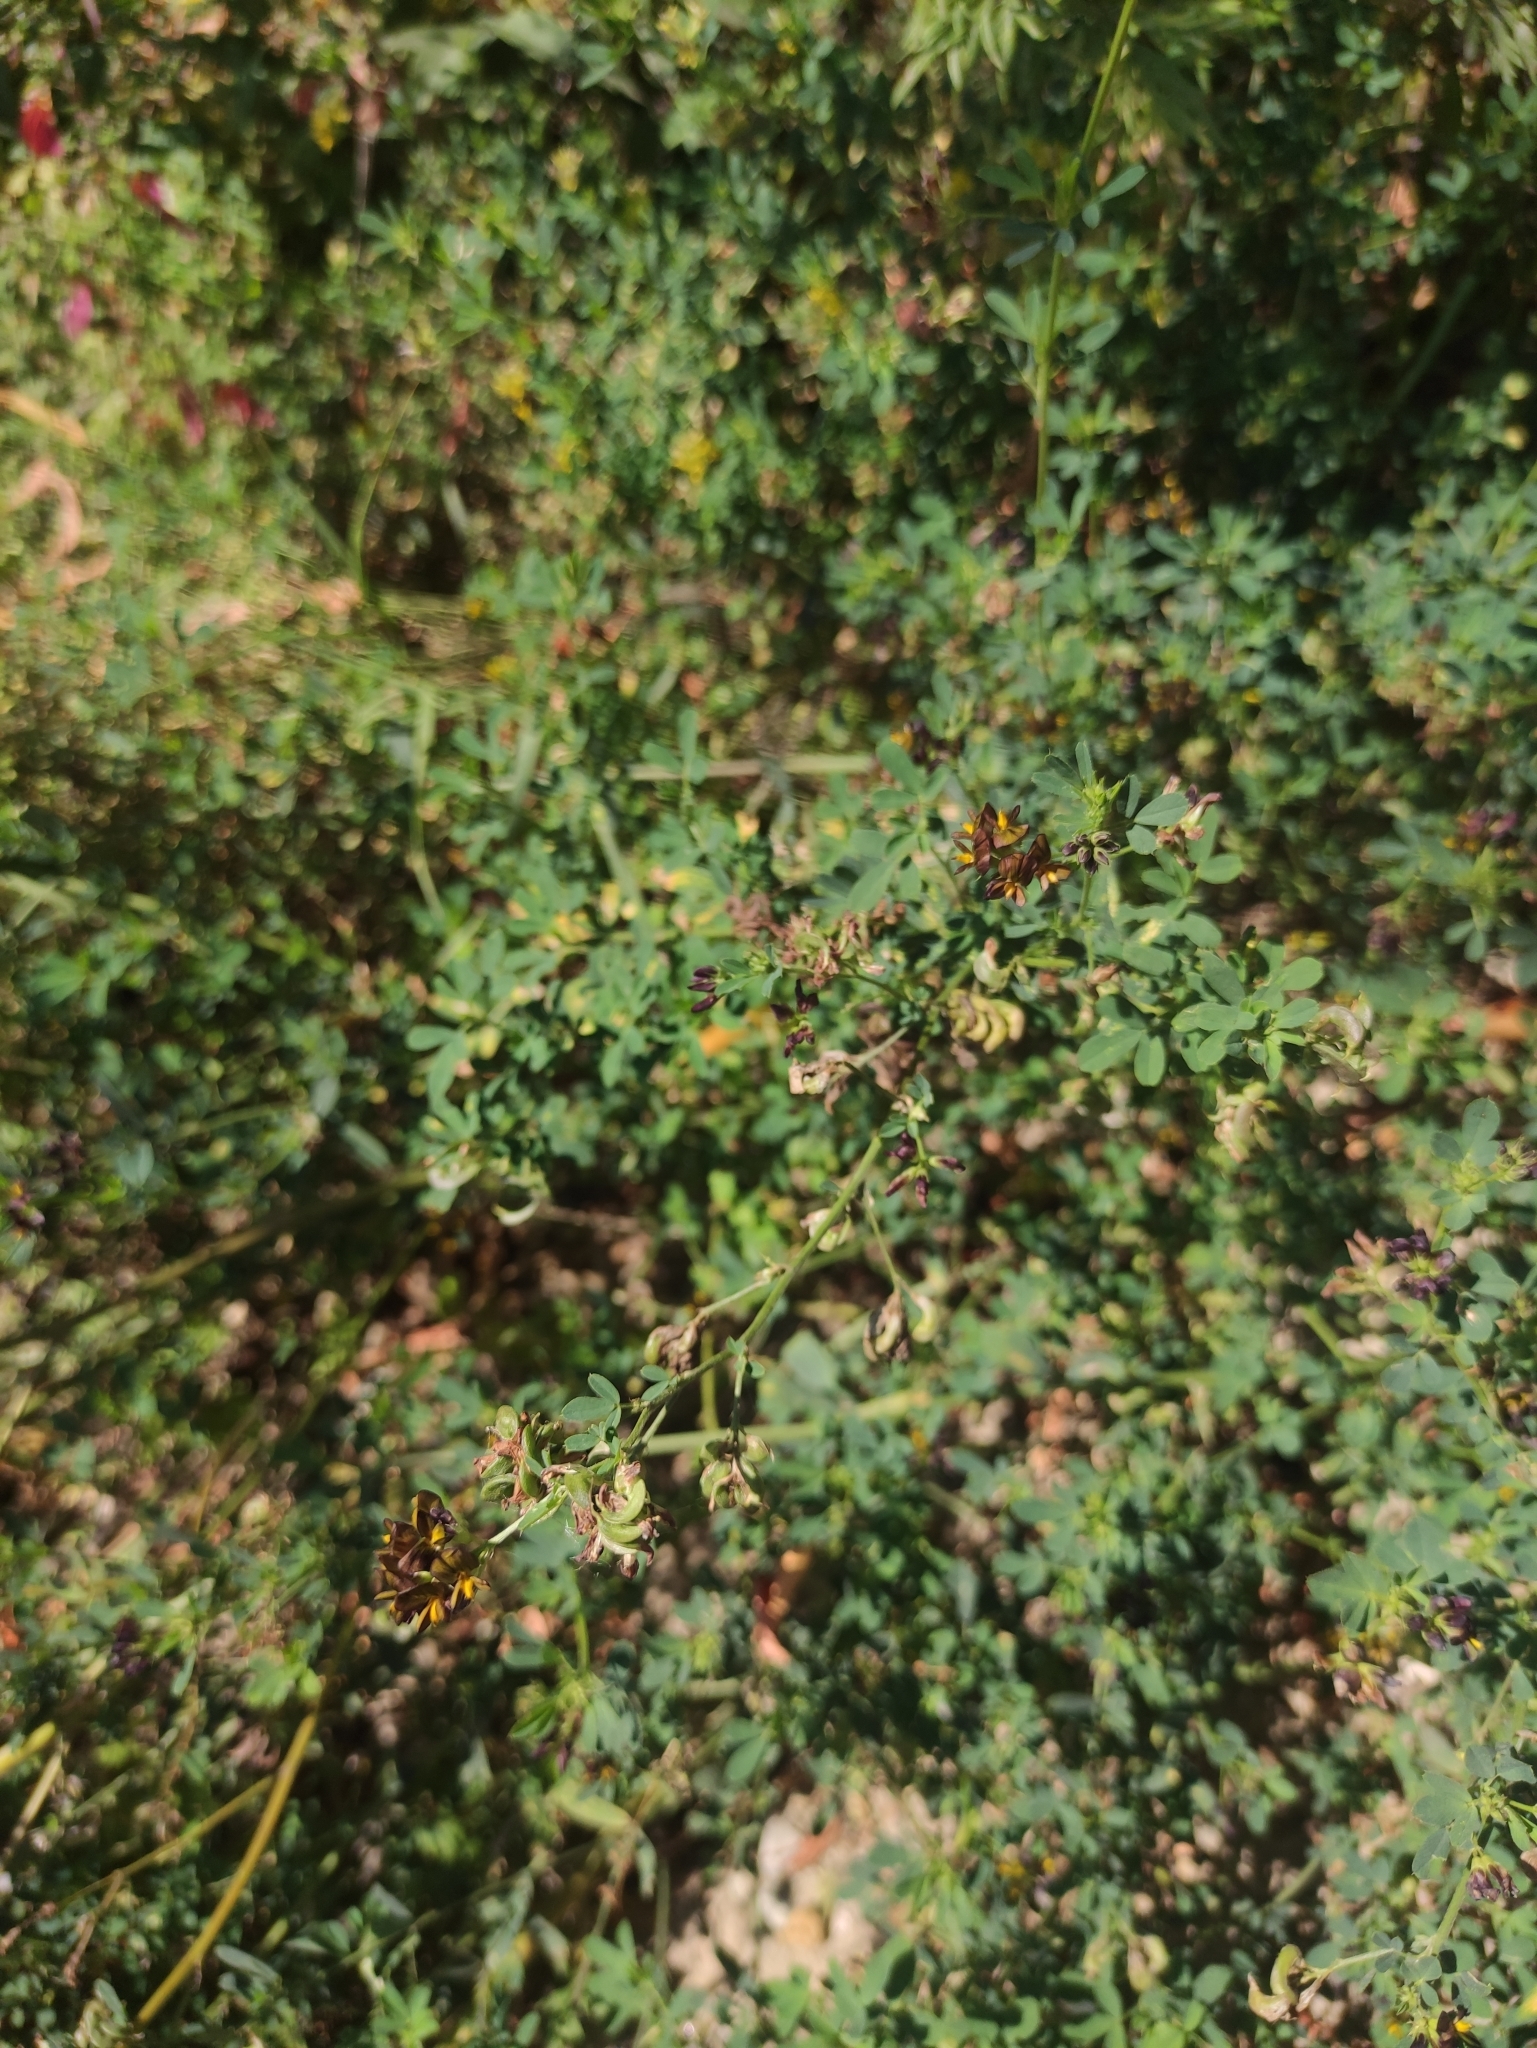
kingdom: Plantae
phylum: Tracheophyta
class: Magnoliopsida
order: Fabales
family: Fabaceae
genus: Medicago
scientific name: Medicago varia
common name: Sand lucerne
